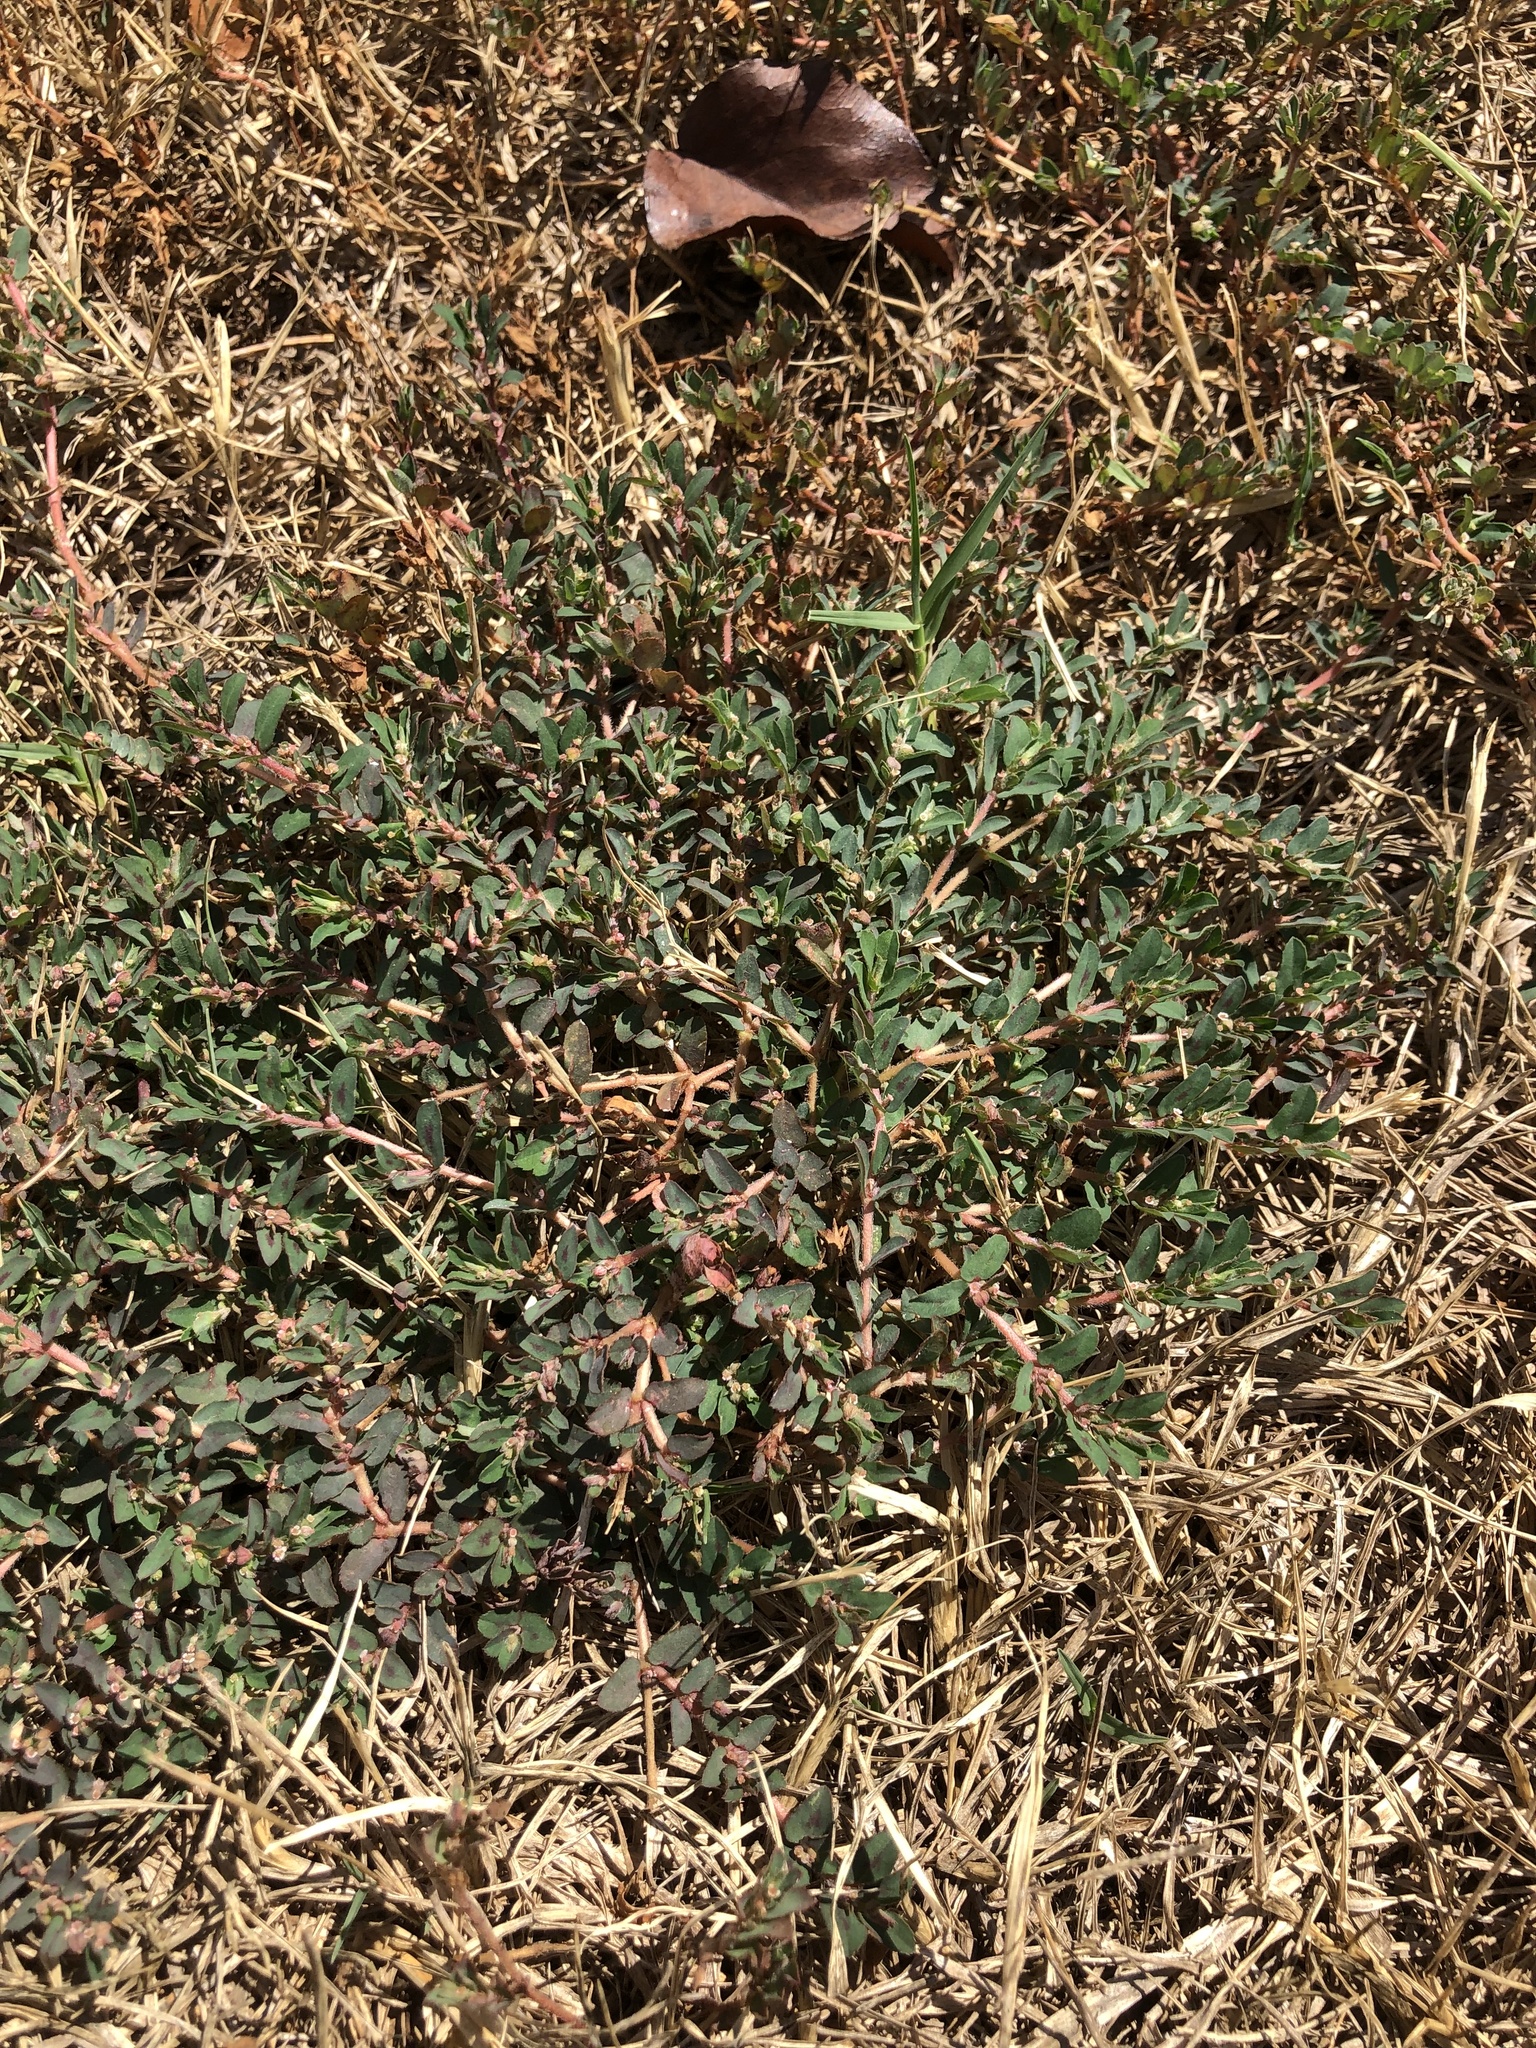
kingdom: Plantae
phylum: Tracheophyta
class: Magnoliopsida
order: Malpighiales
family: Euphorbiaceae
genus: Euphorbia
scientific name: Euphorbia maculata
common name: Spotted spurge
